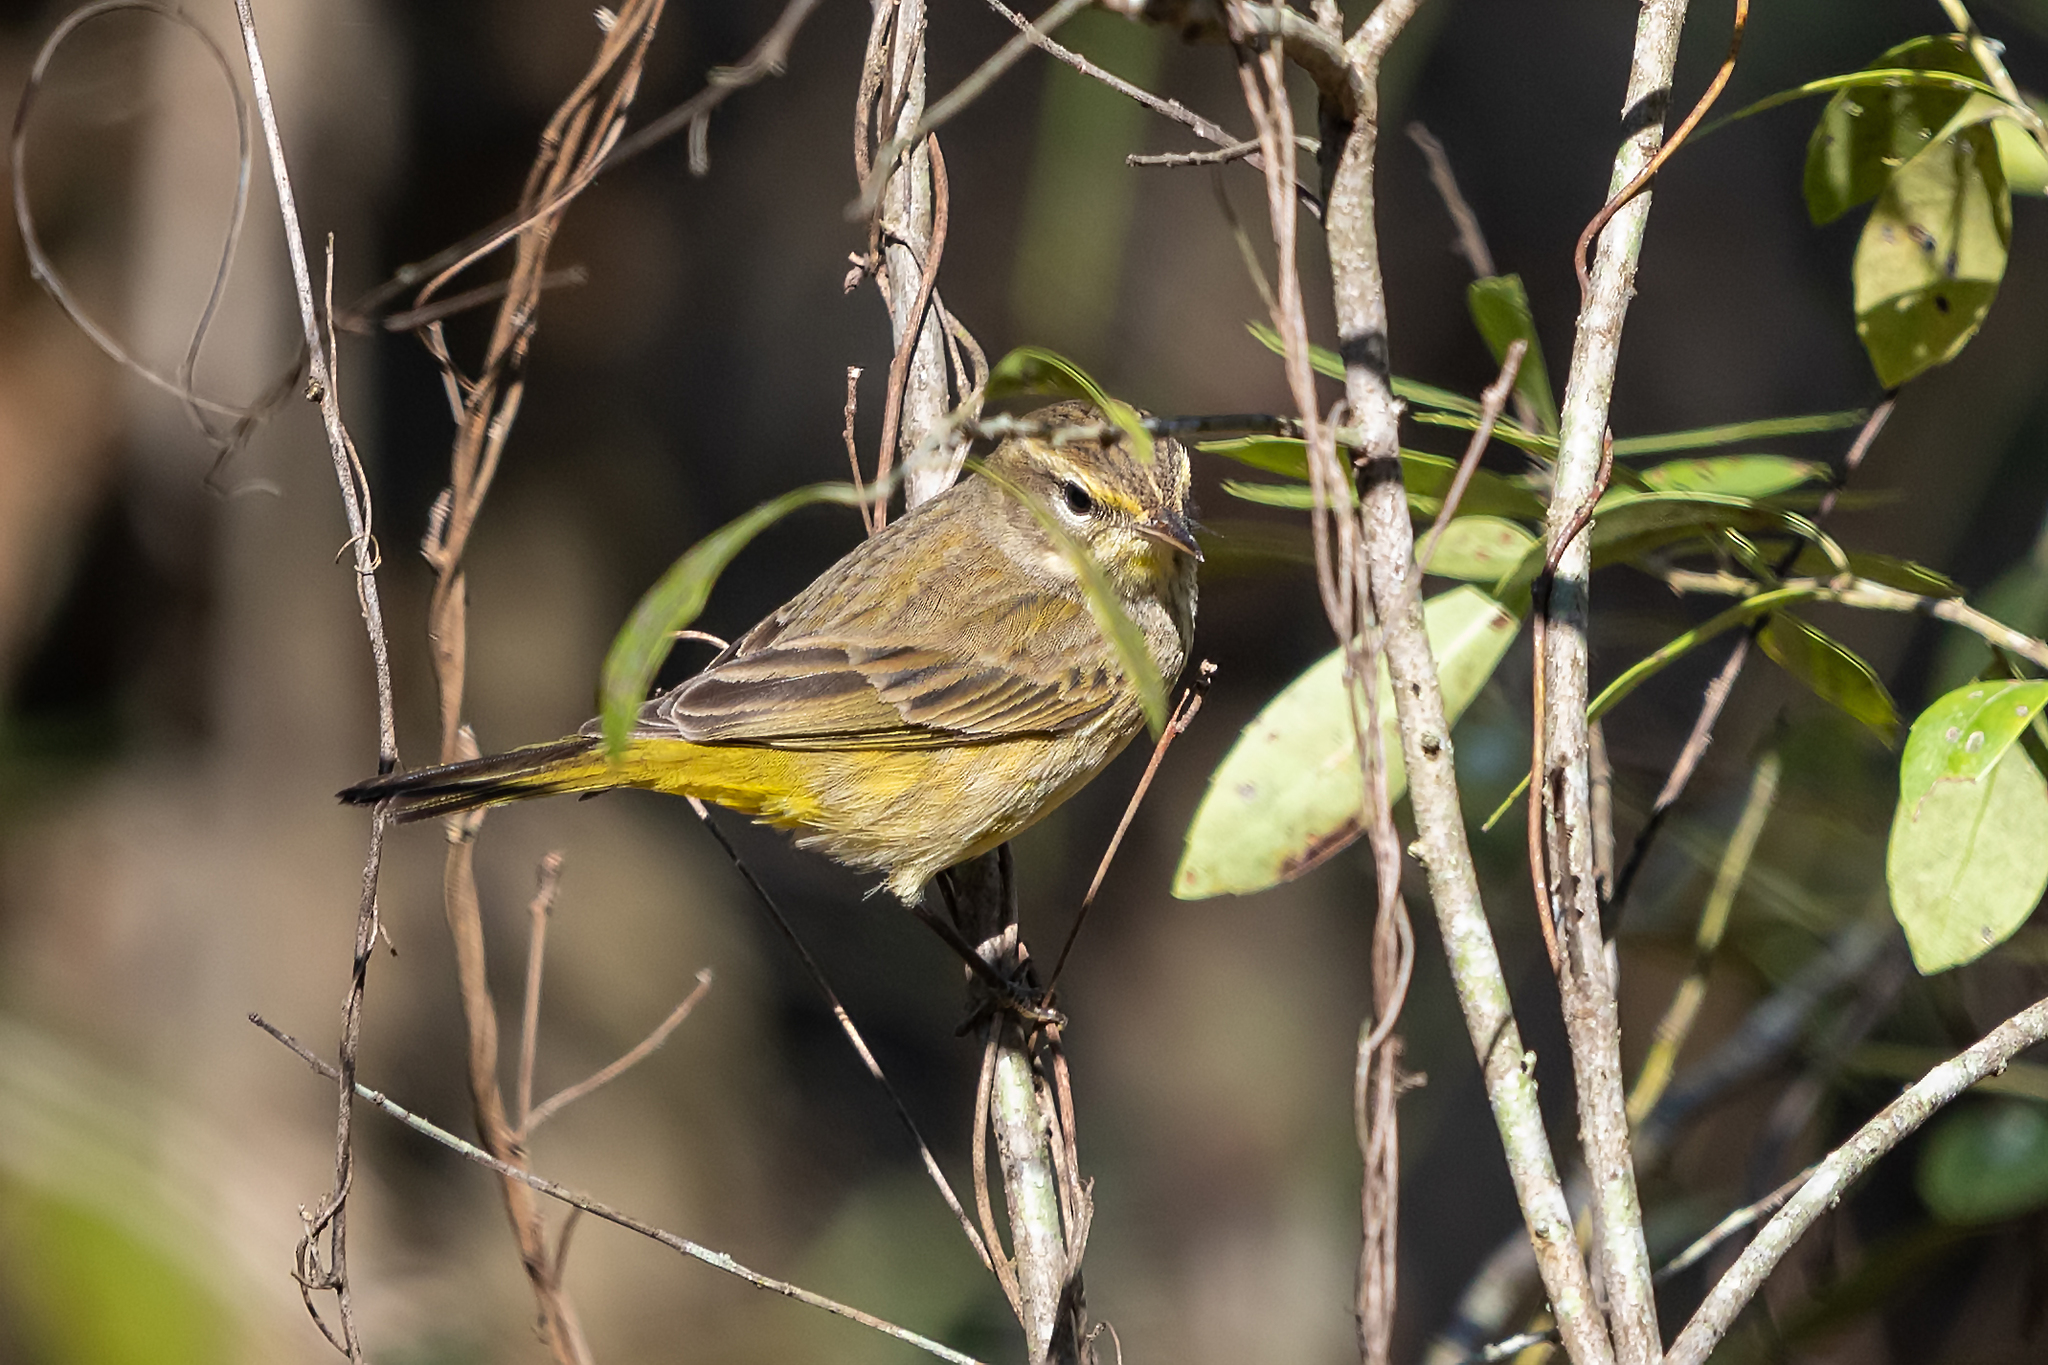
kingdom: Animalia
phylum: Chordata
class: Aves
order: Passeriformes
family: Parulidae
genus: Setophaga
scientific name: Setophaga palmarum
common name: Palm warbler
